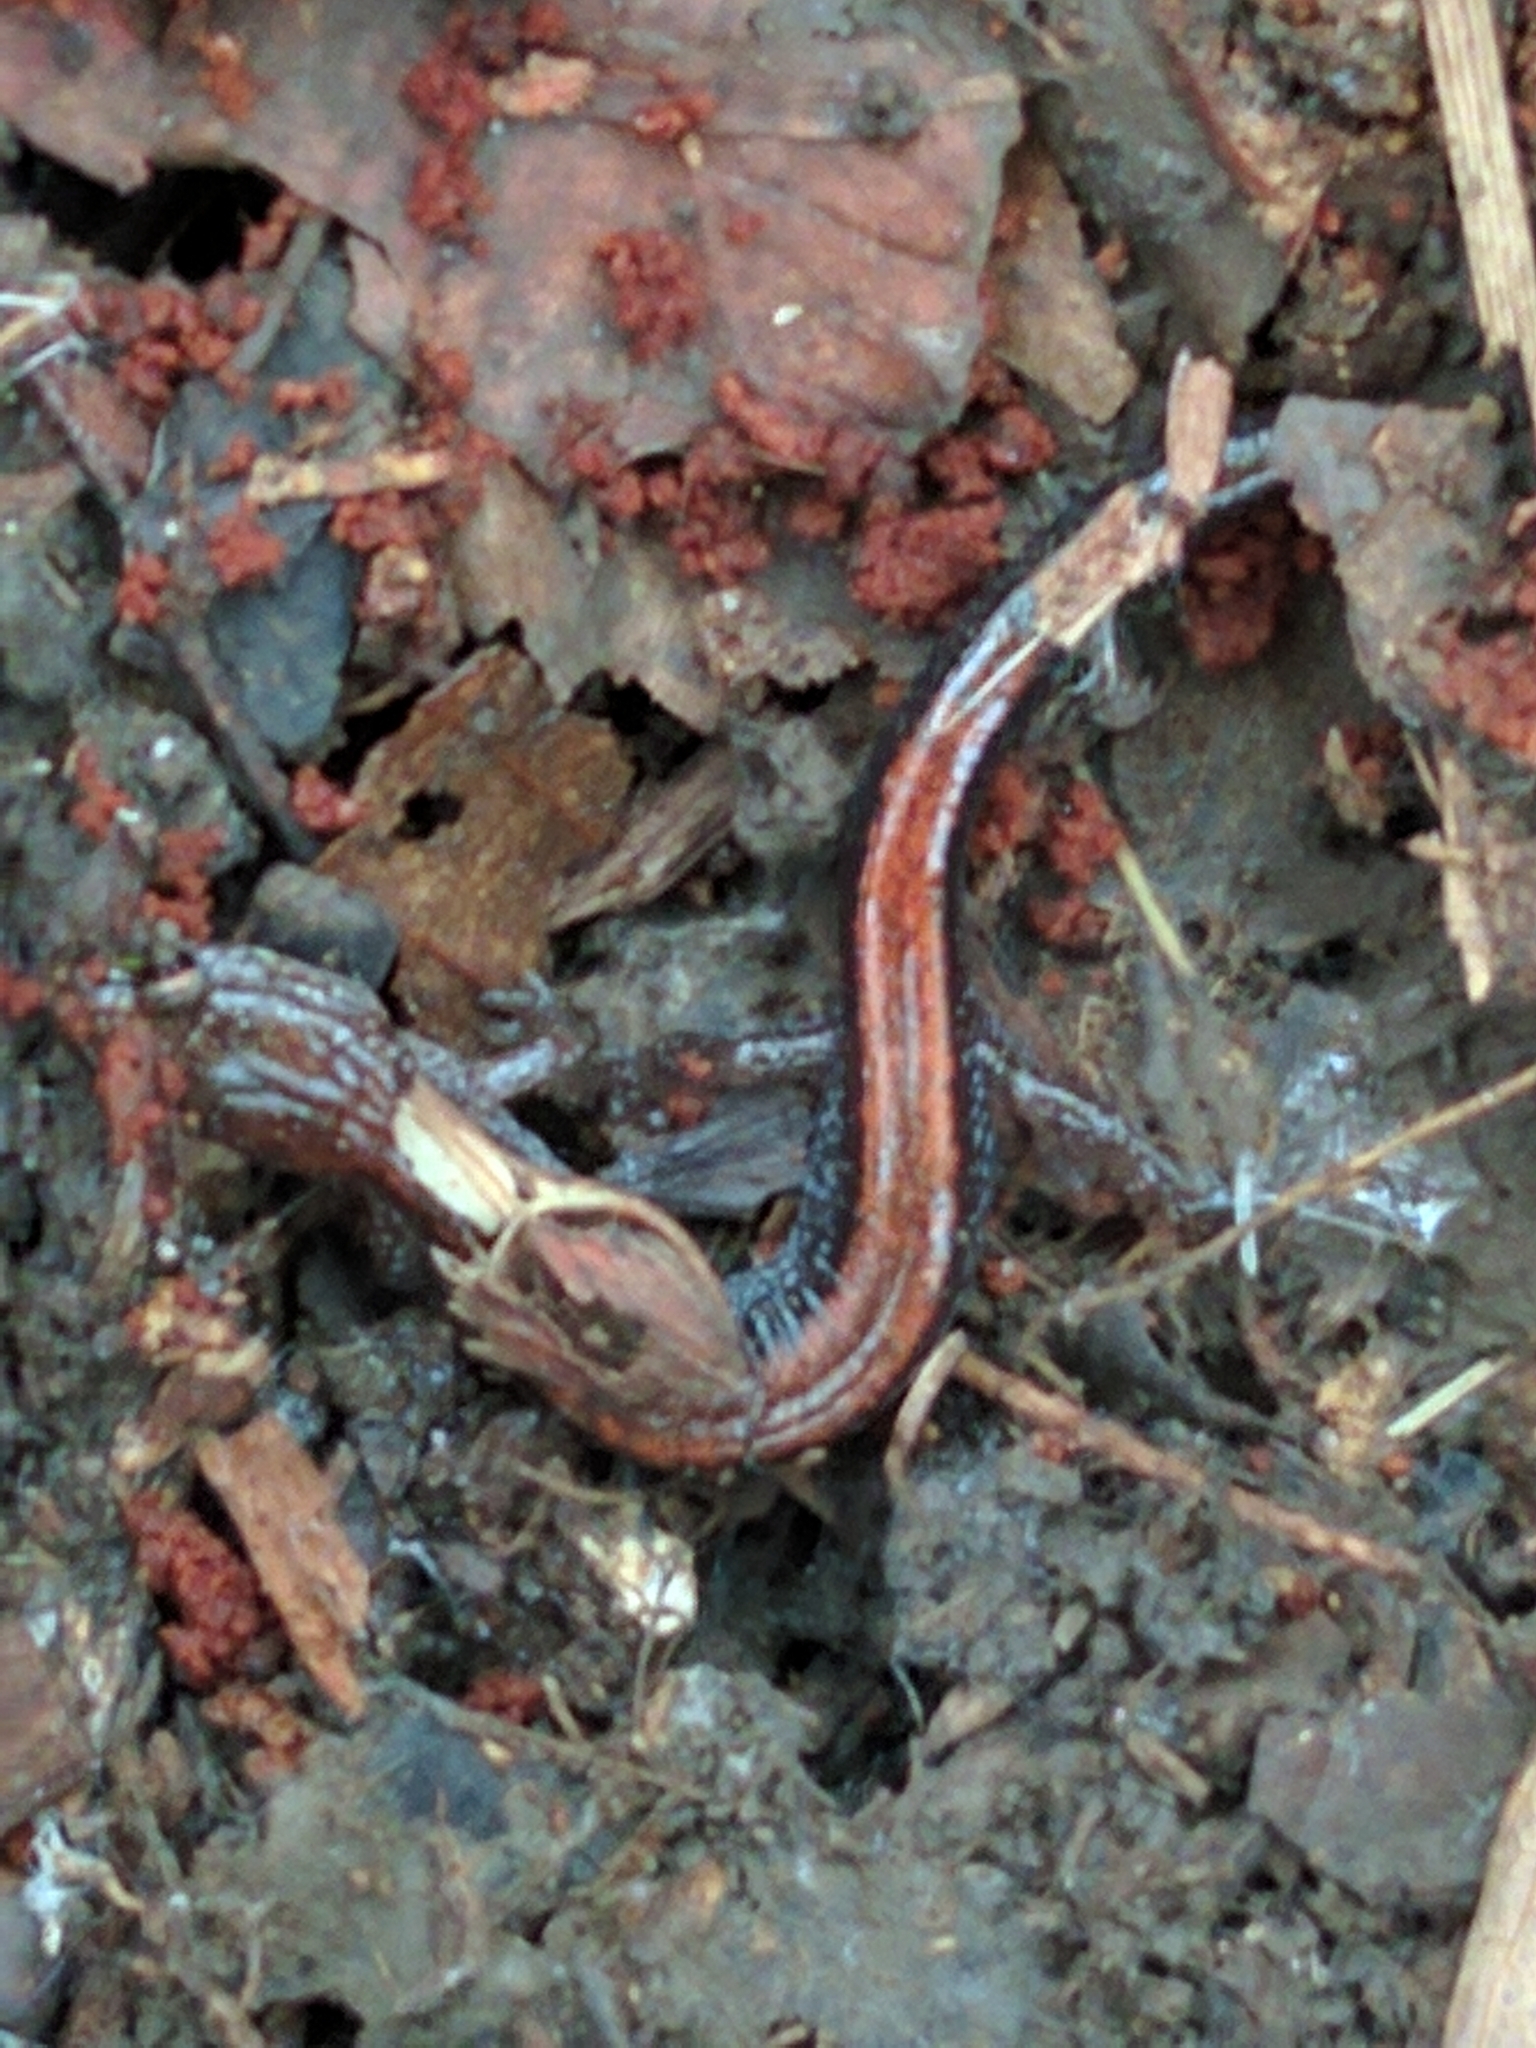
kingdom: Animalia
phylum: Chordata
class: Amphibia
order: Caudata
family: Plethodontidae
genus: Plethodon
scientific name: Plethodon cinereus
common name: Redback salamander
